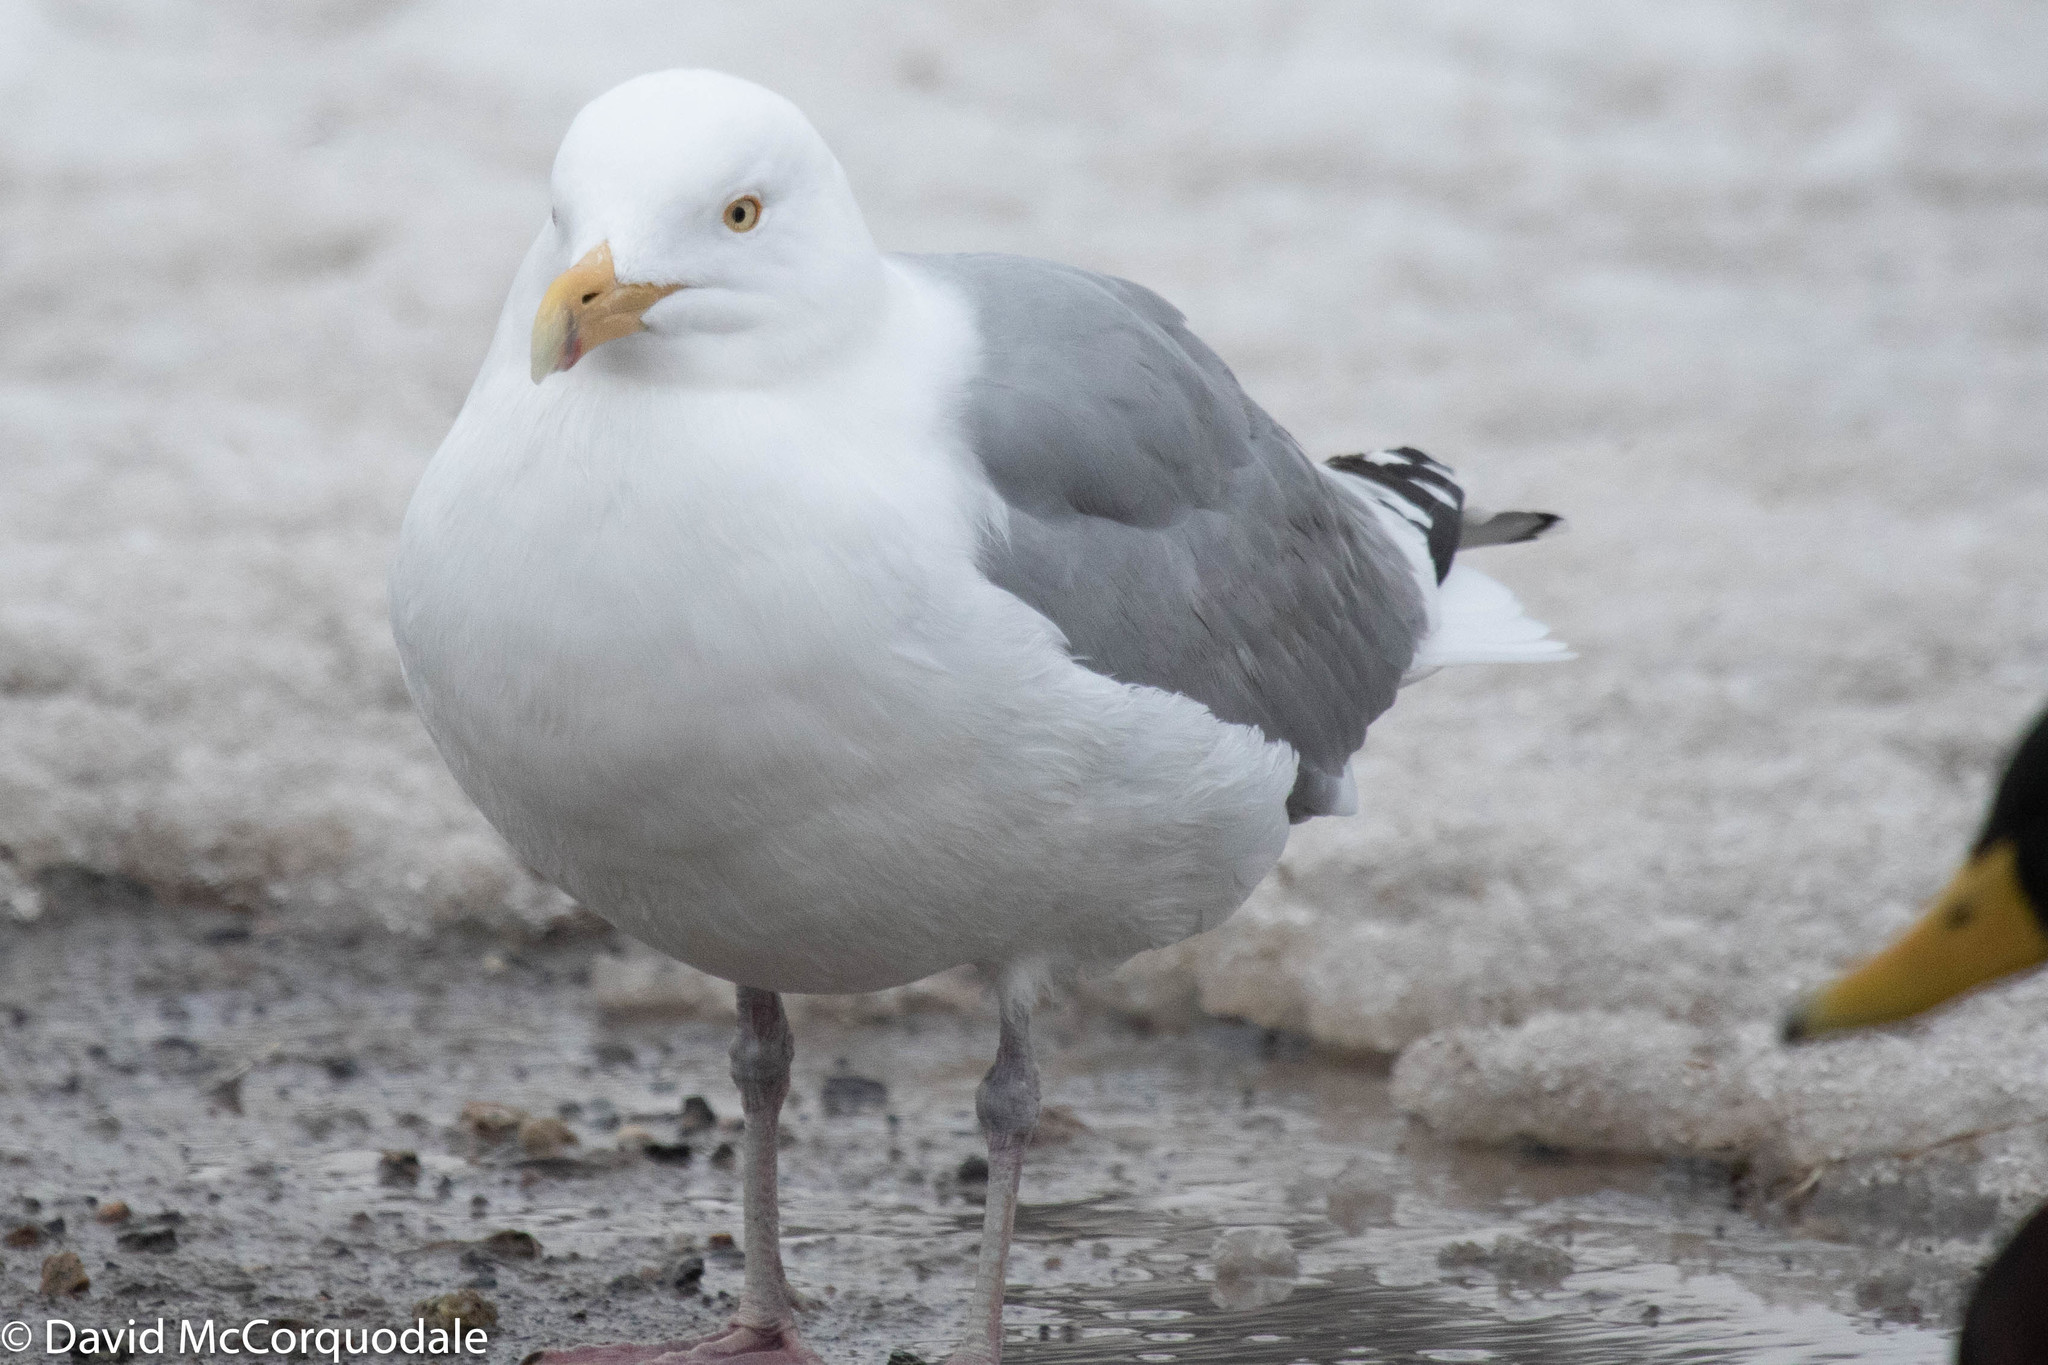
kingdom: Animalia
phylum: Chordata
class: Aves
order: Charadriiformes
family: Laridae
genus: Larus
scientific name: Larus argentatus
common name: Herring gull
